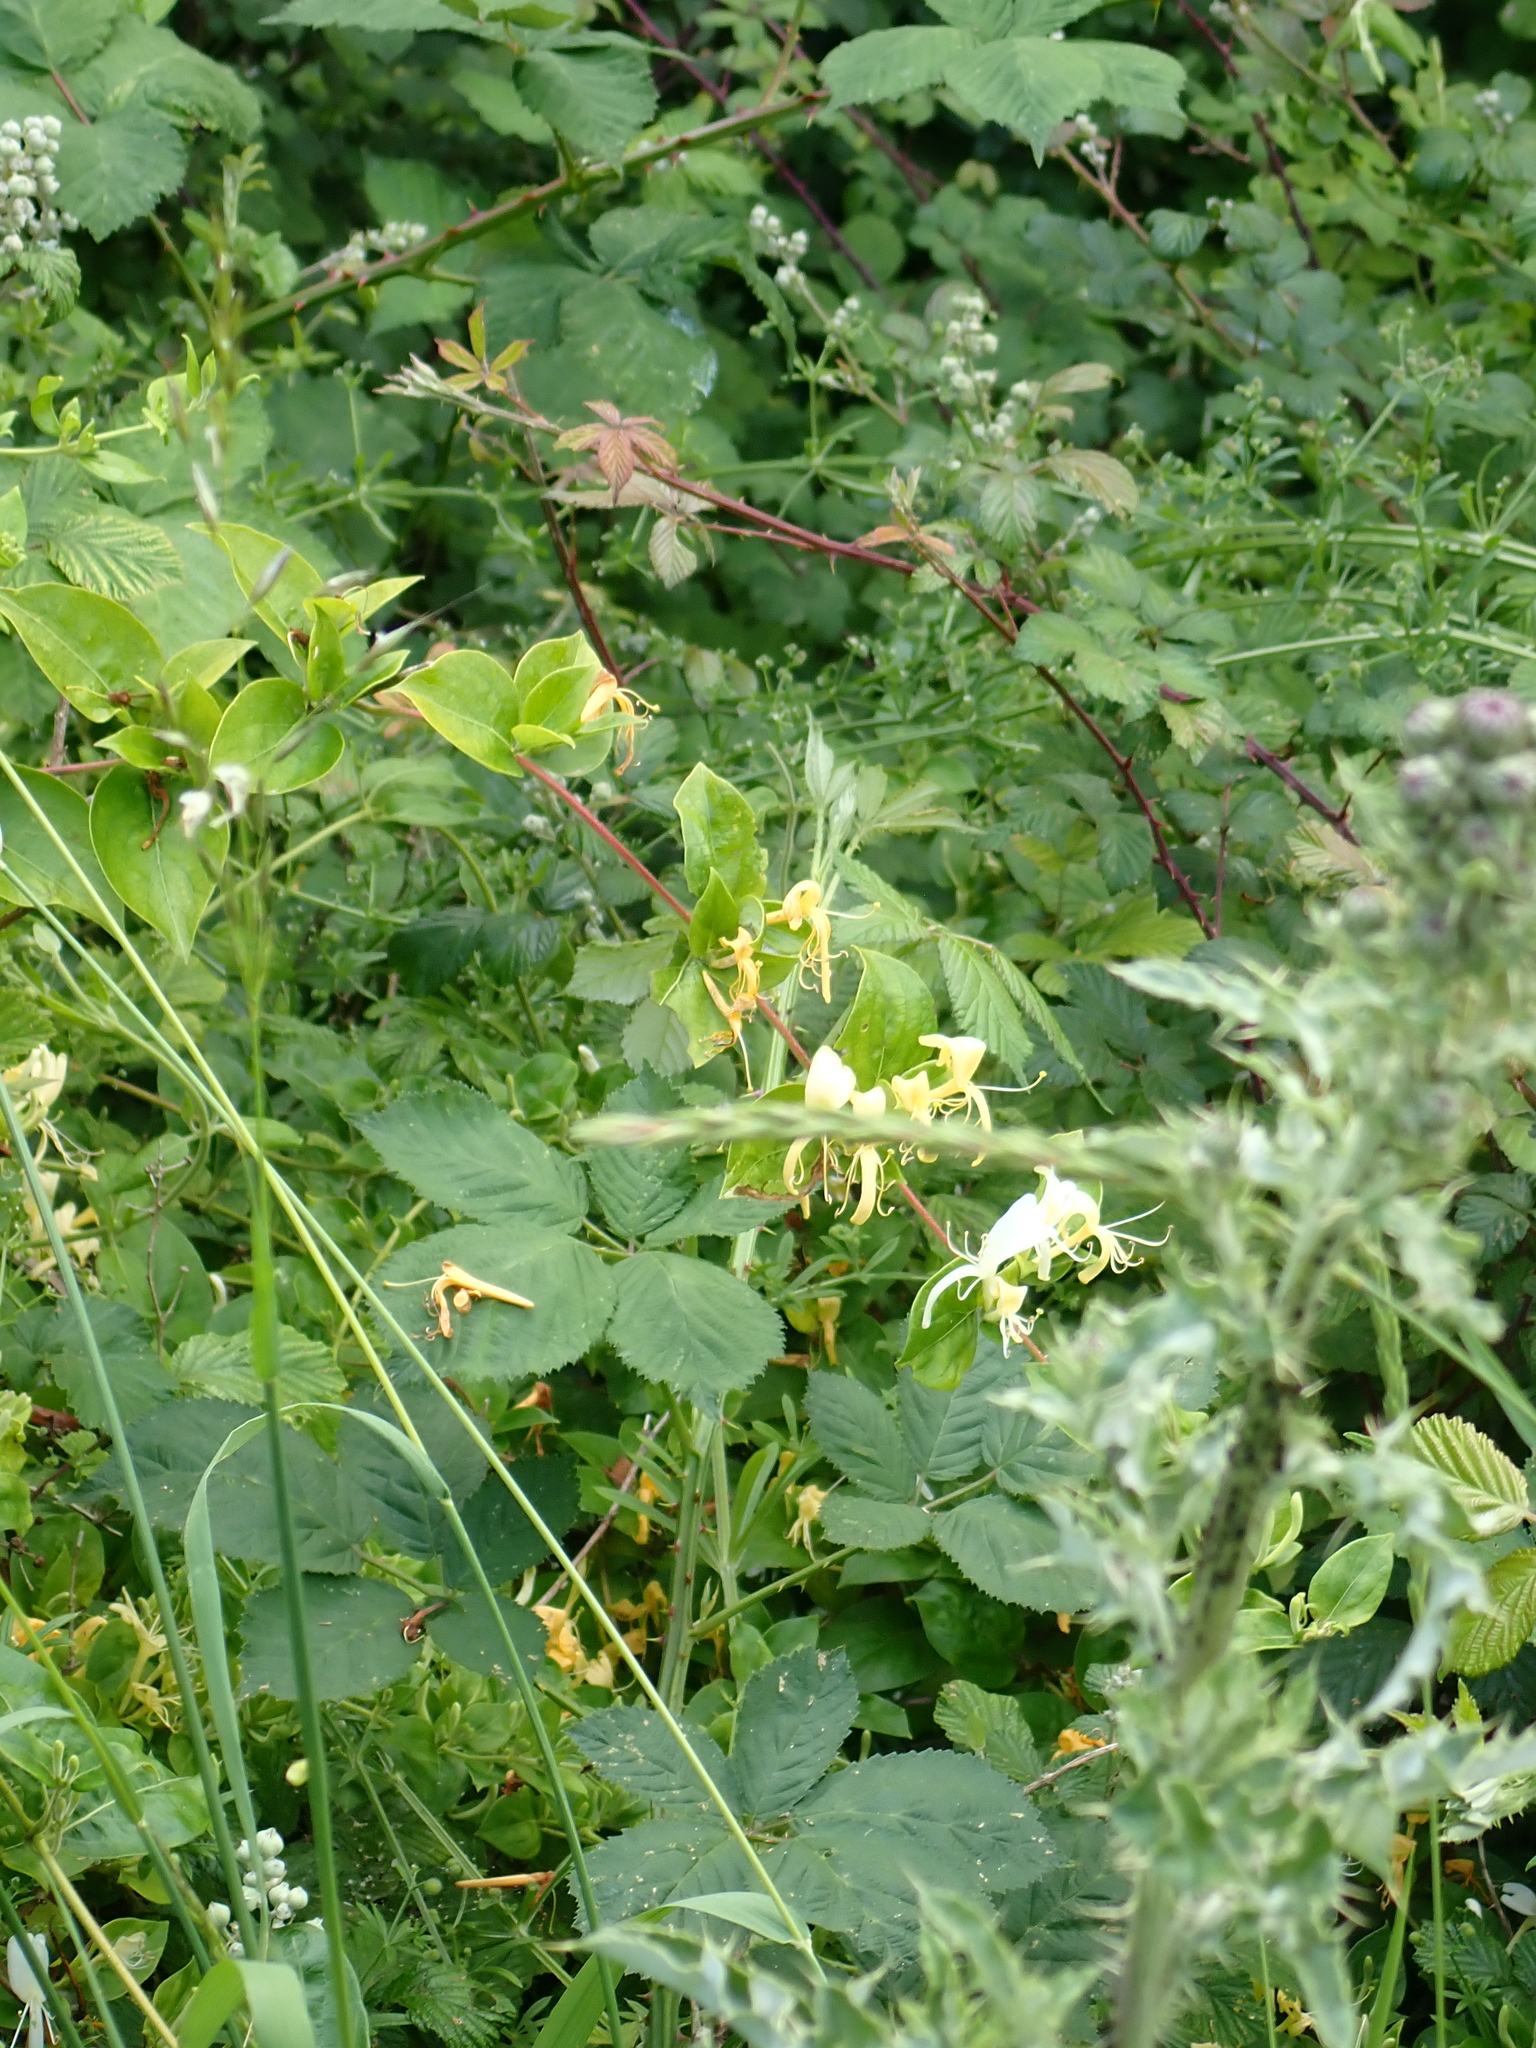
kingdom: Plantae
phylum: Tracheophyta
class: Magnoliopsida
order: Dipsacales
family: Caprifoliaceae
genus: Lonicera
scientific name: Lonicera japonica
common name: Japanese honeysuckle
